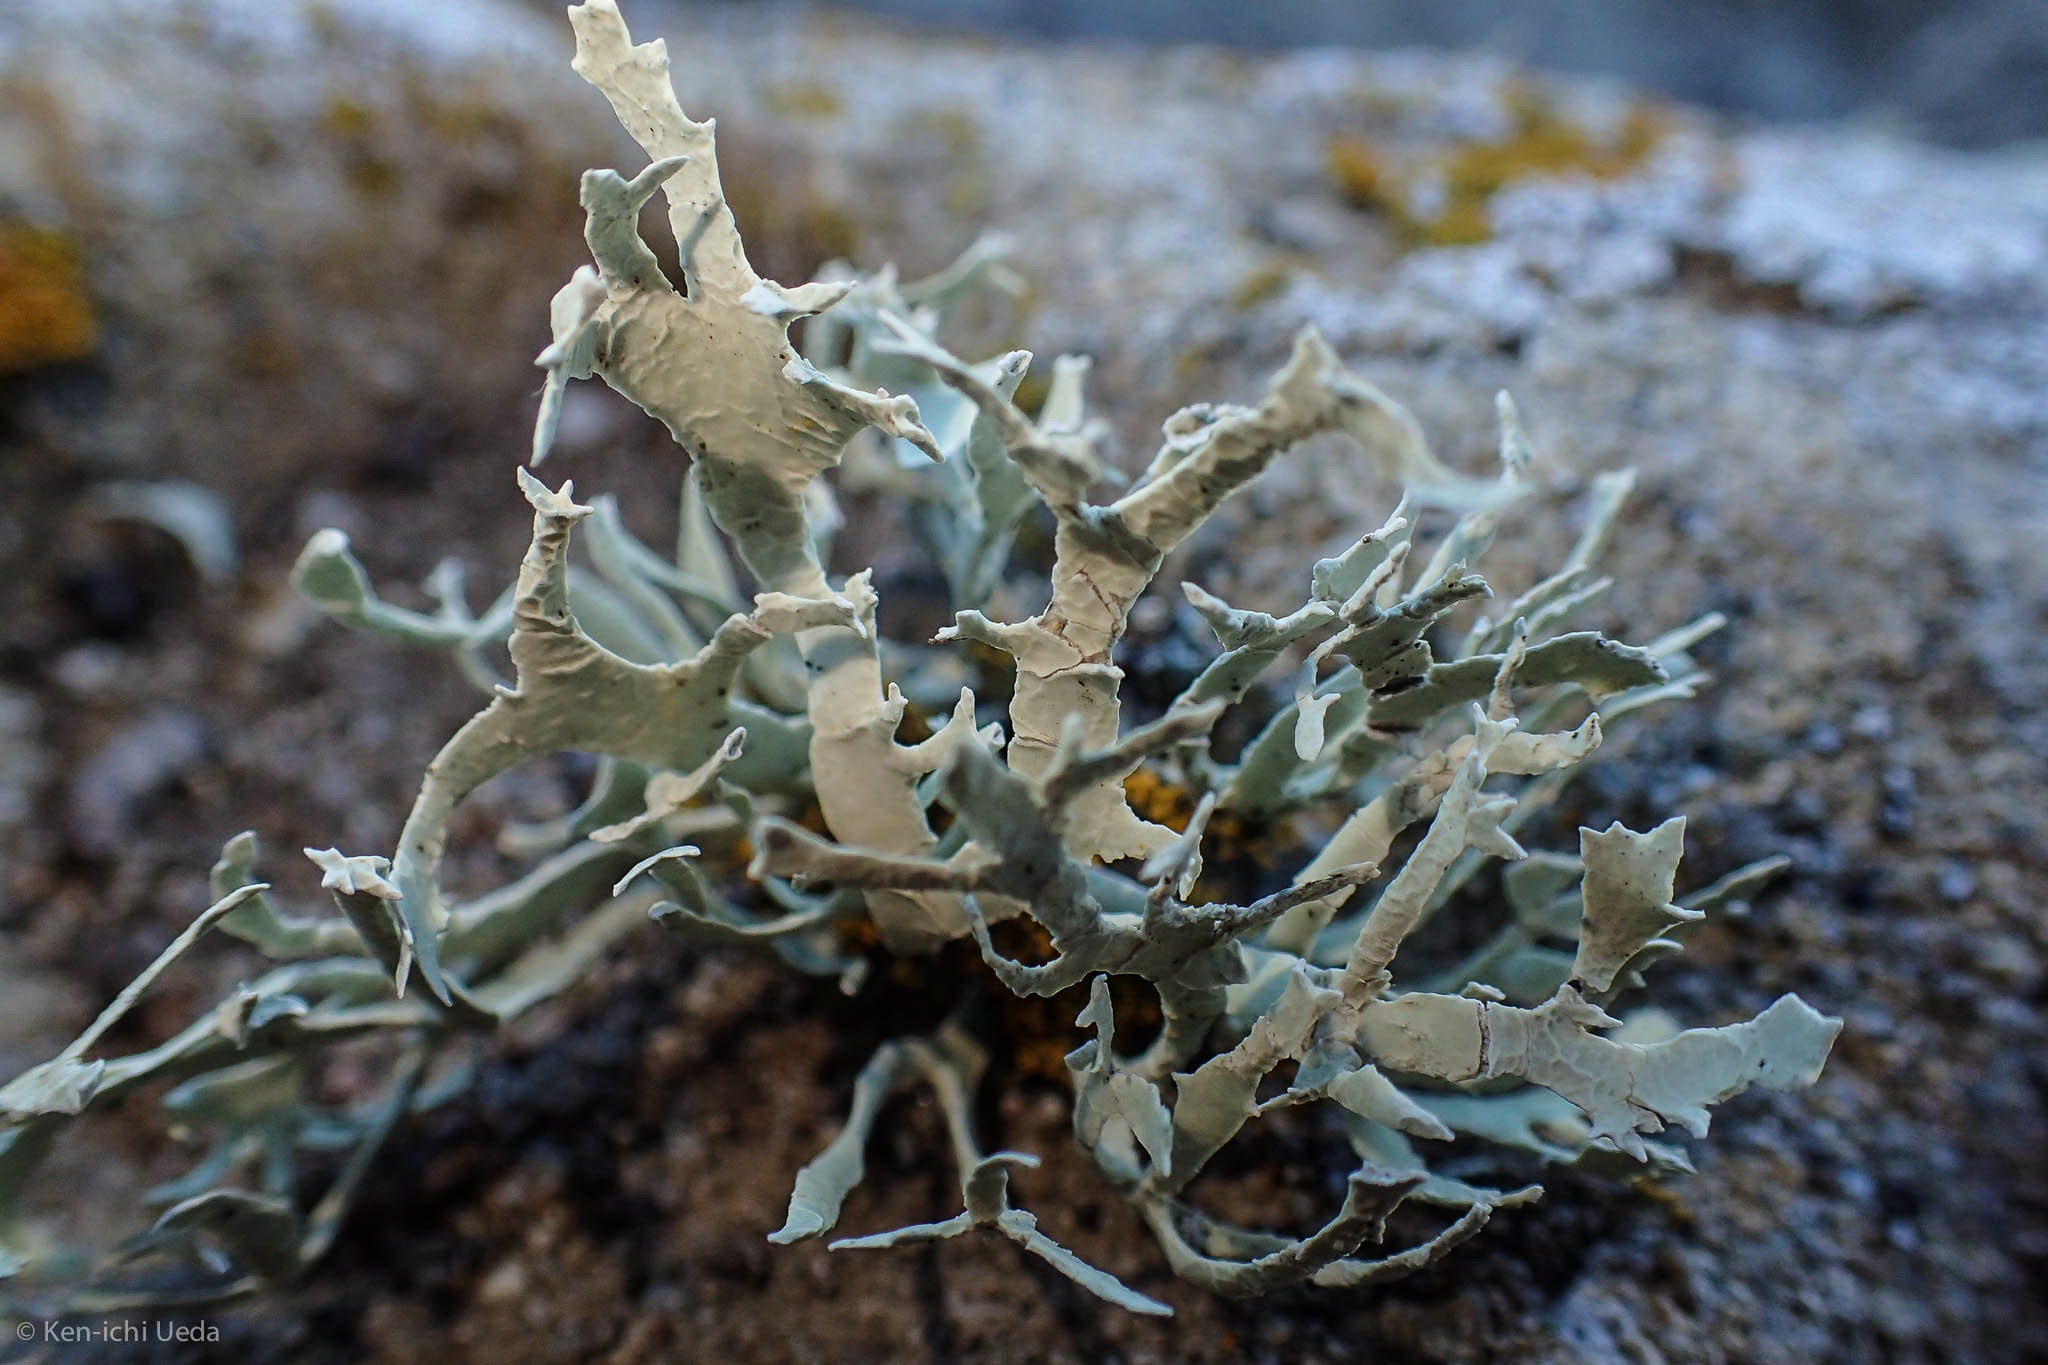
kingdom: Fungi
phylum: Ascomycota
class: Lecanoromycetes
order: Lecanorales
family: Ramalinaceae
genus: Niebla
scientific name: Niebla homalea
